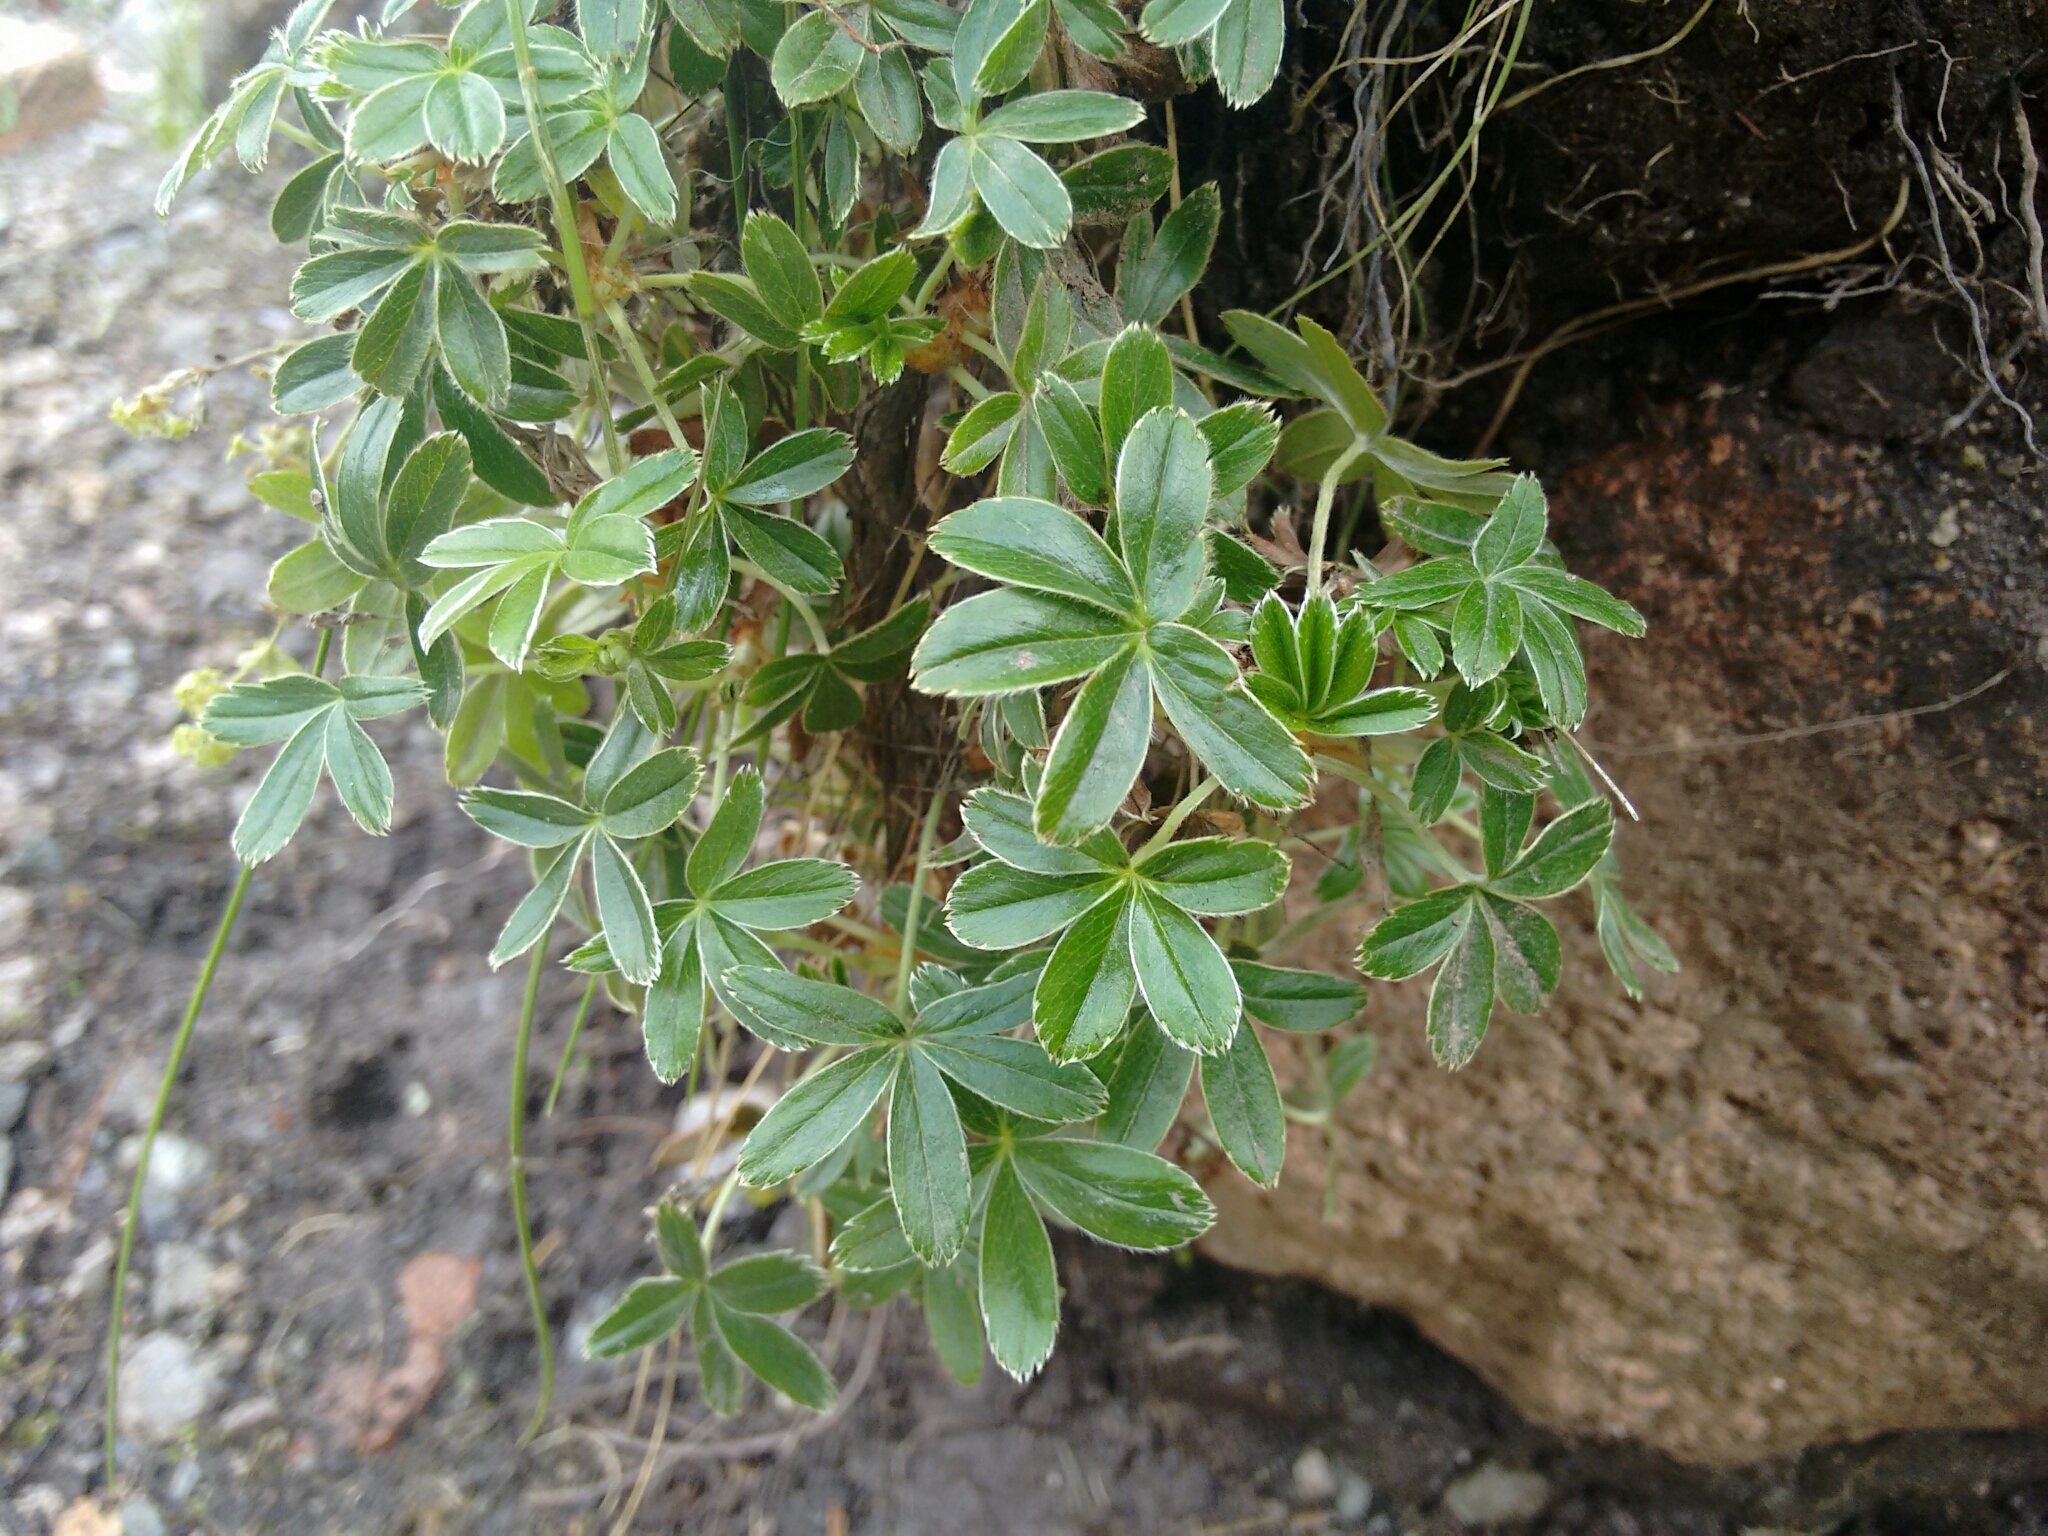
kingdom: Plantae
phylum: Tracheophyta
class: Magnoliopsida
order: Rosales
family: Rosaceae
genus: Alchemilla
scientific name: Alchemilla alpina
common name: Alpine lady's-mantle
